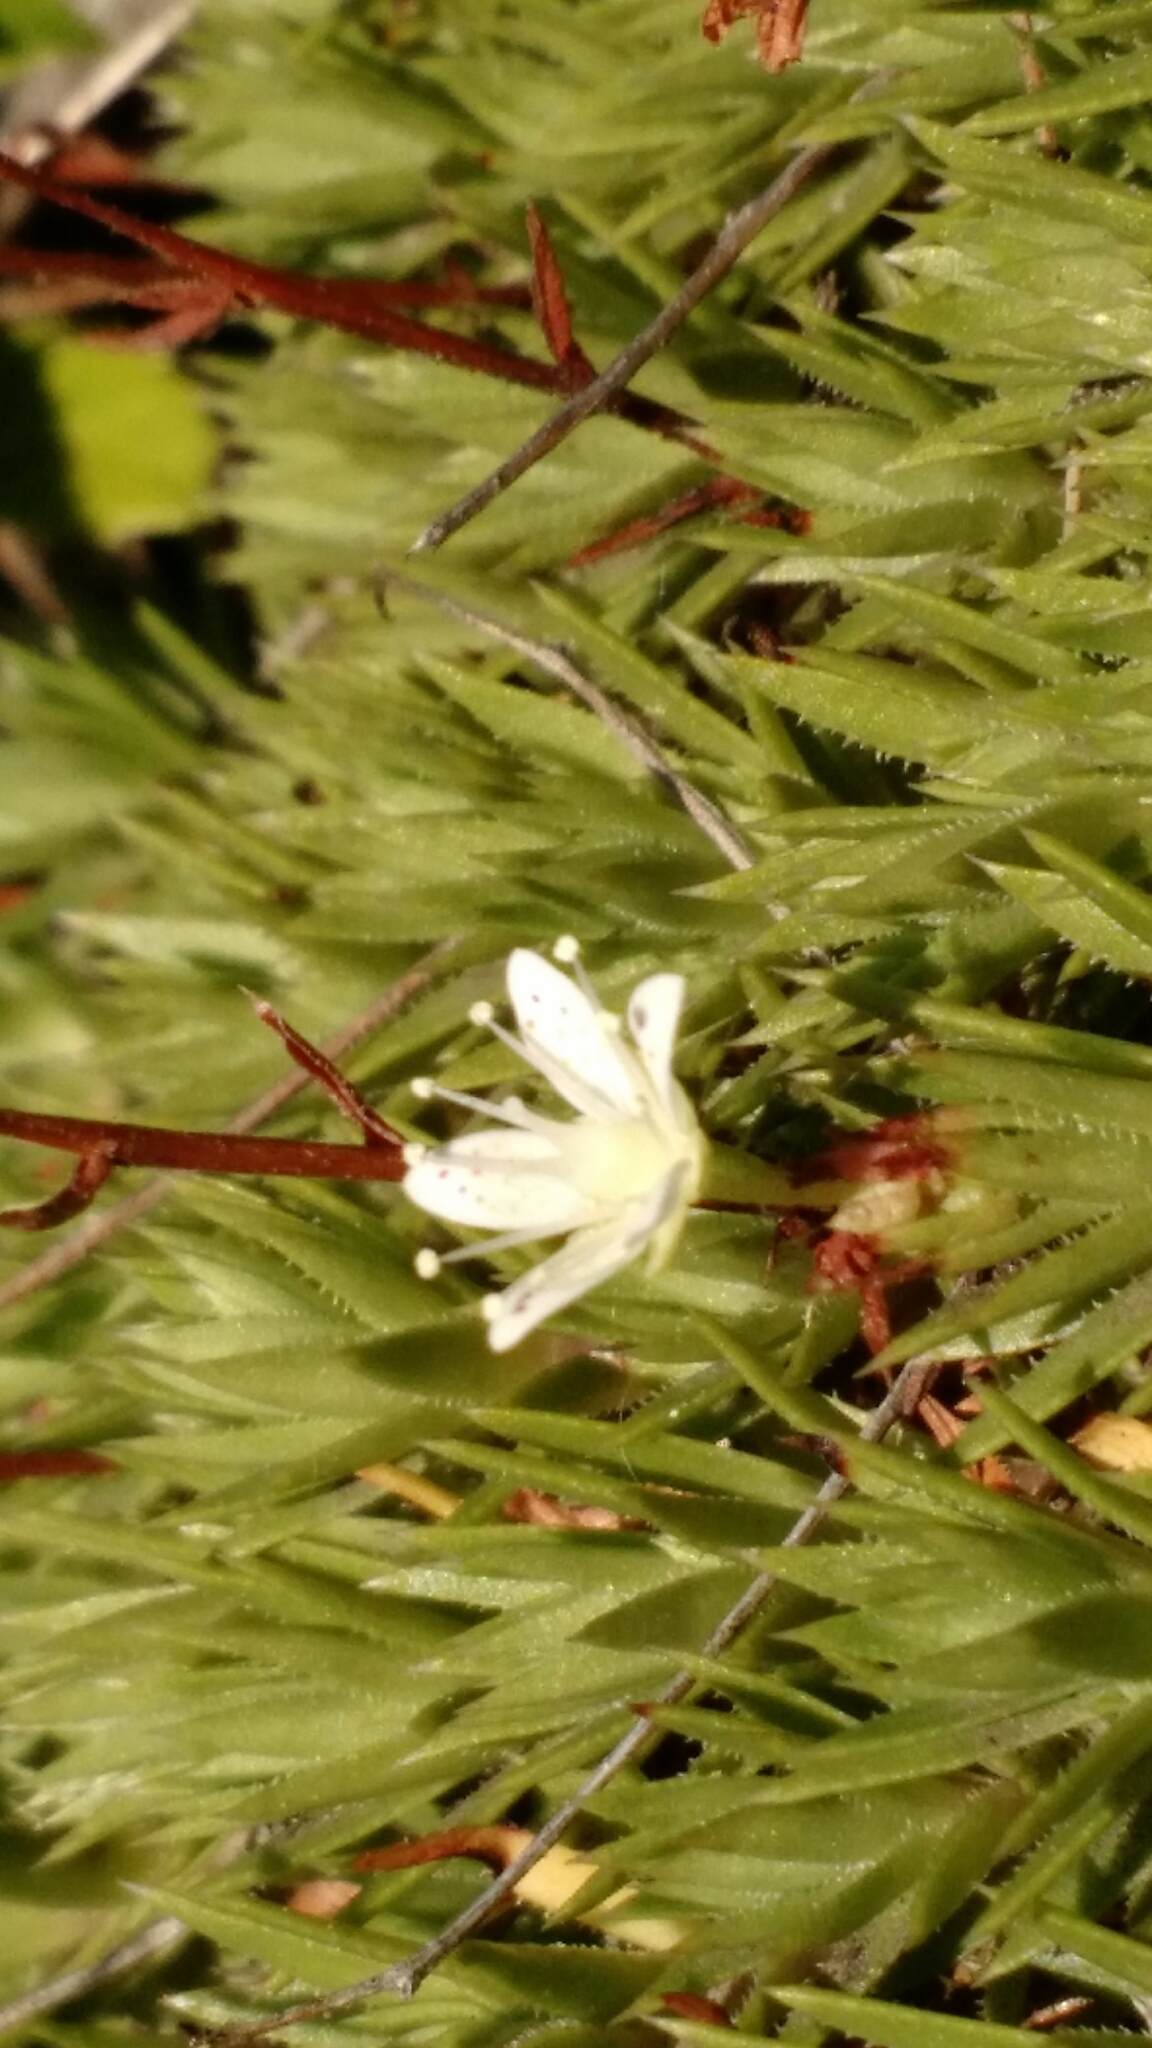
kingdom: Plantae
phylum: Tracheophyta
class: Magnoliopsida
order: Saxifragales
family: Saxifragaceae
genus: Saxifraga
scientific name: Saxifraga bronchialis
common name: Matted saxifrage
